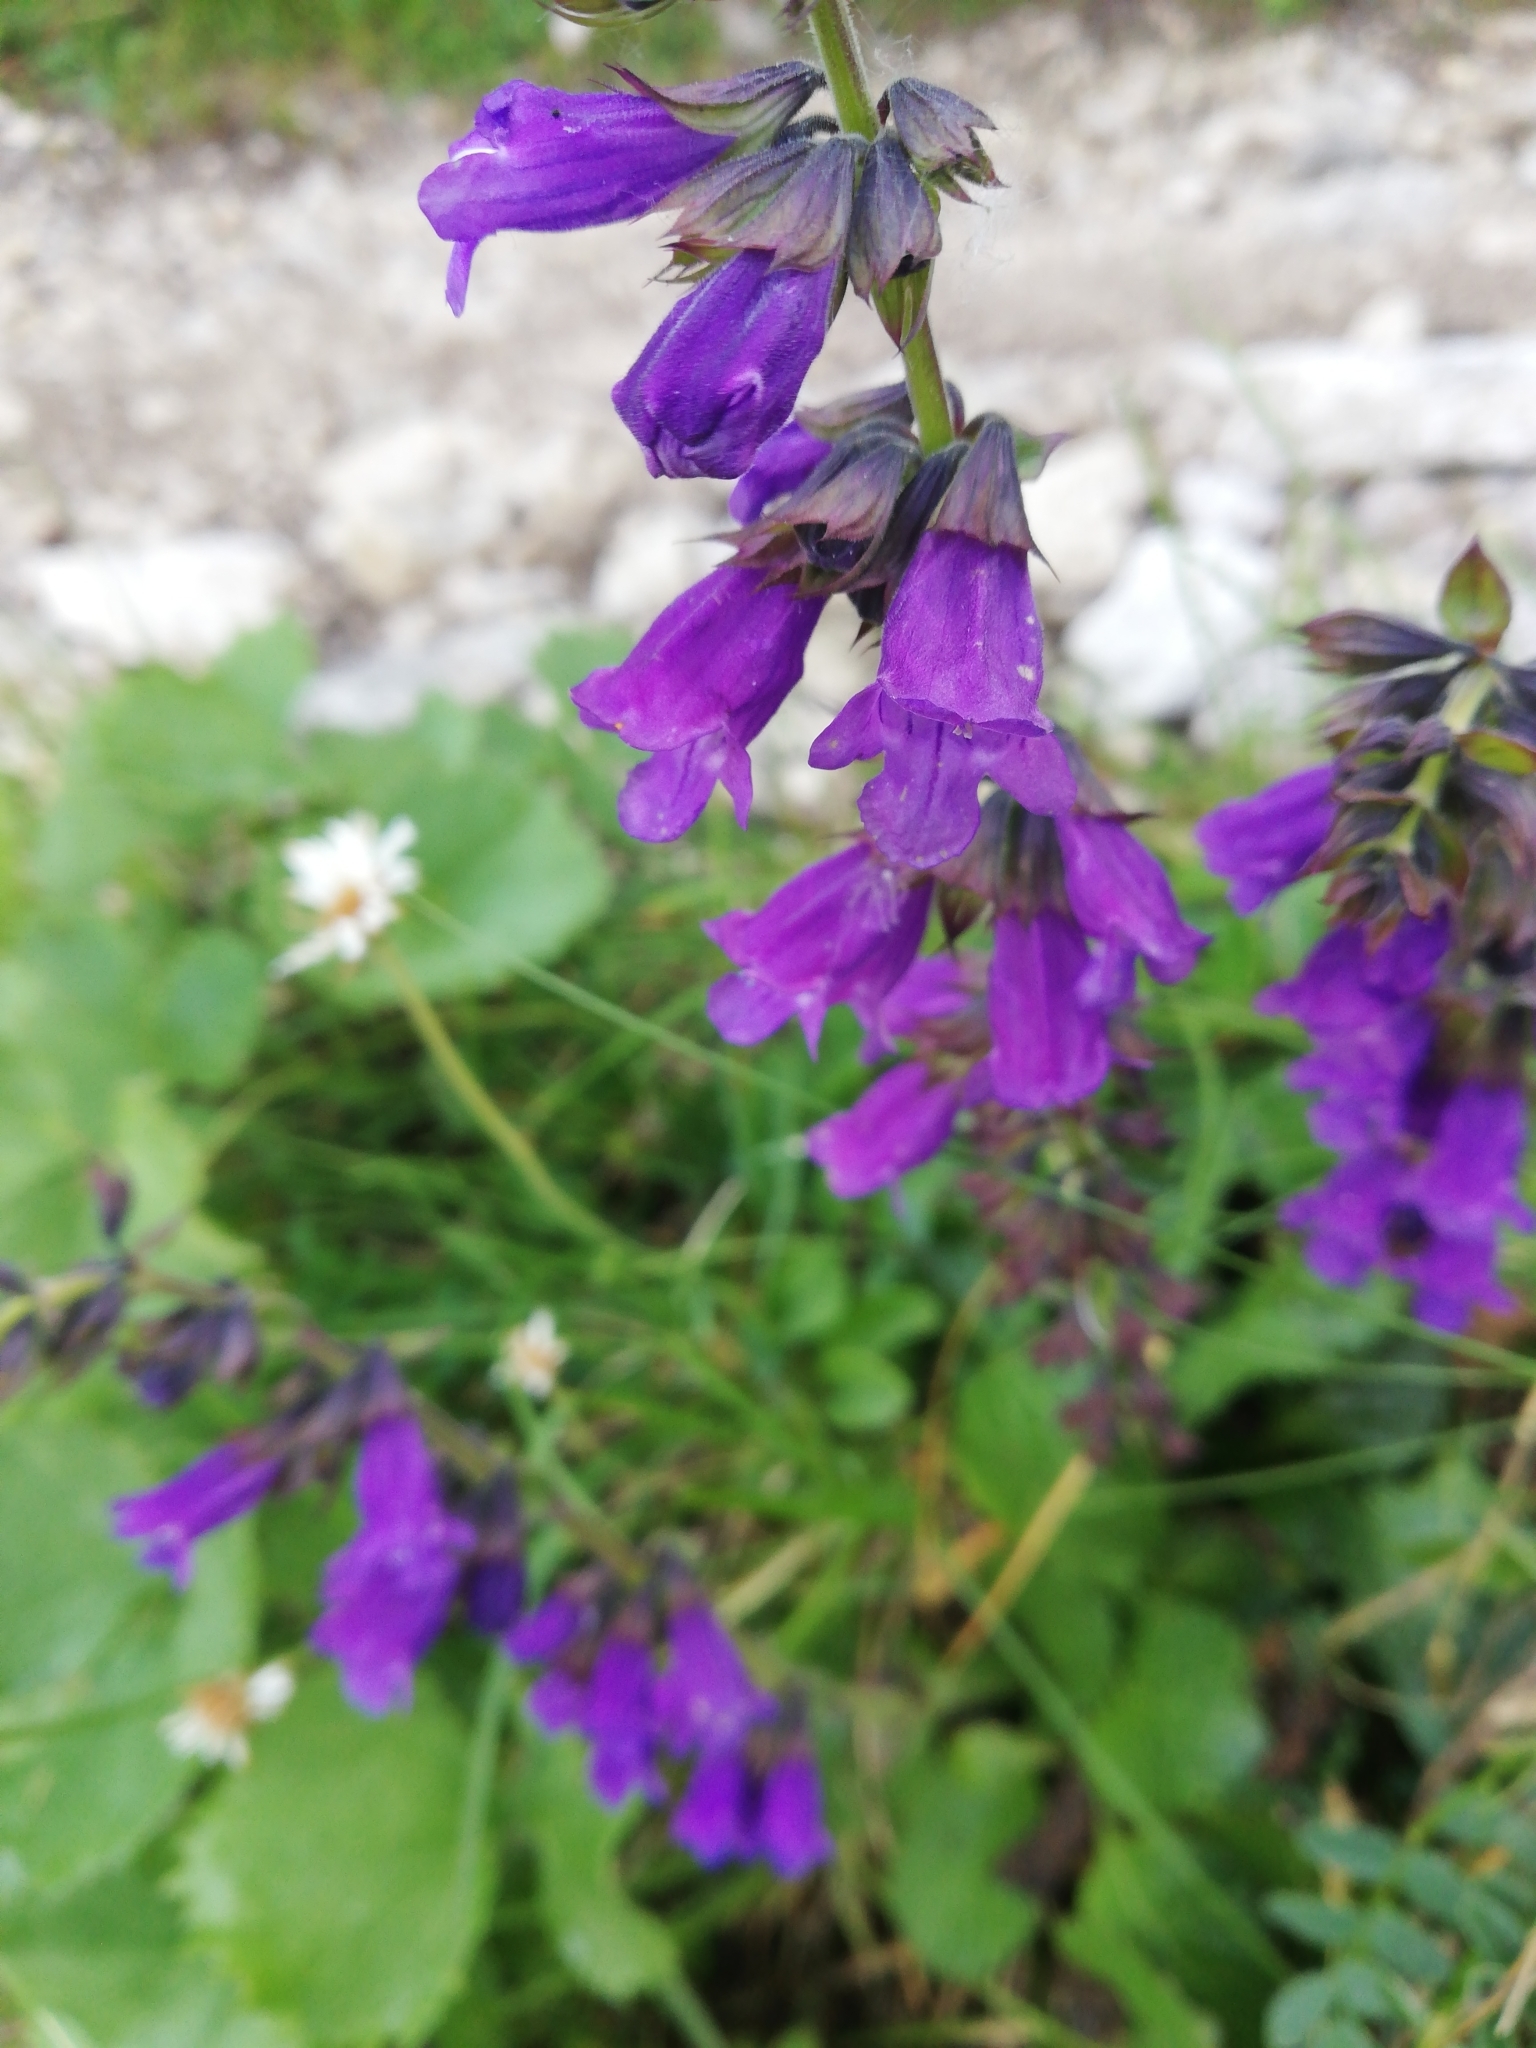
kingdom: Plantae
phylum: Tracheophyta
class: Magnoliopsida
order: Lamiales
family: Lamiaceae
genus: Horminum
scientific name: Horminum pyrenaicum
